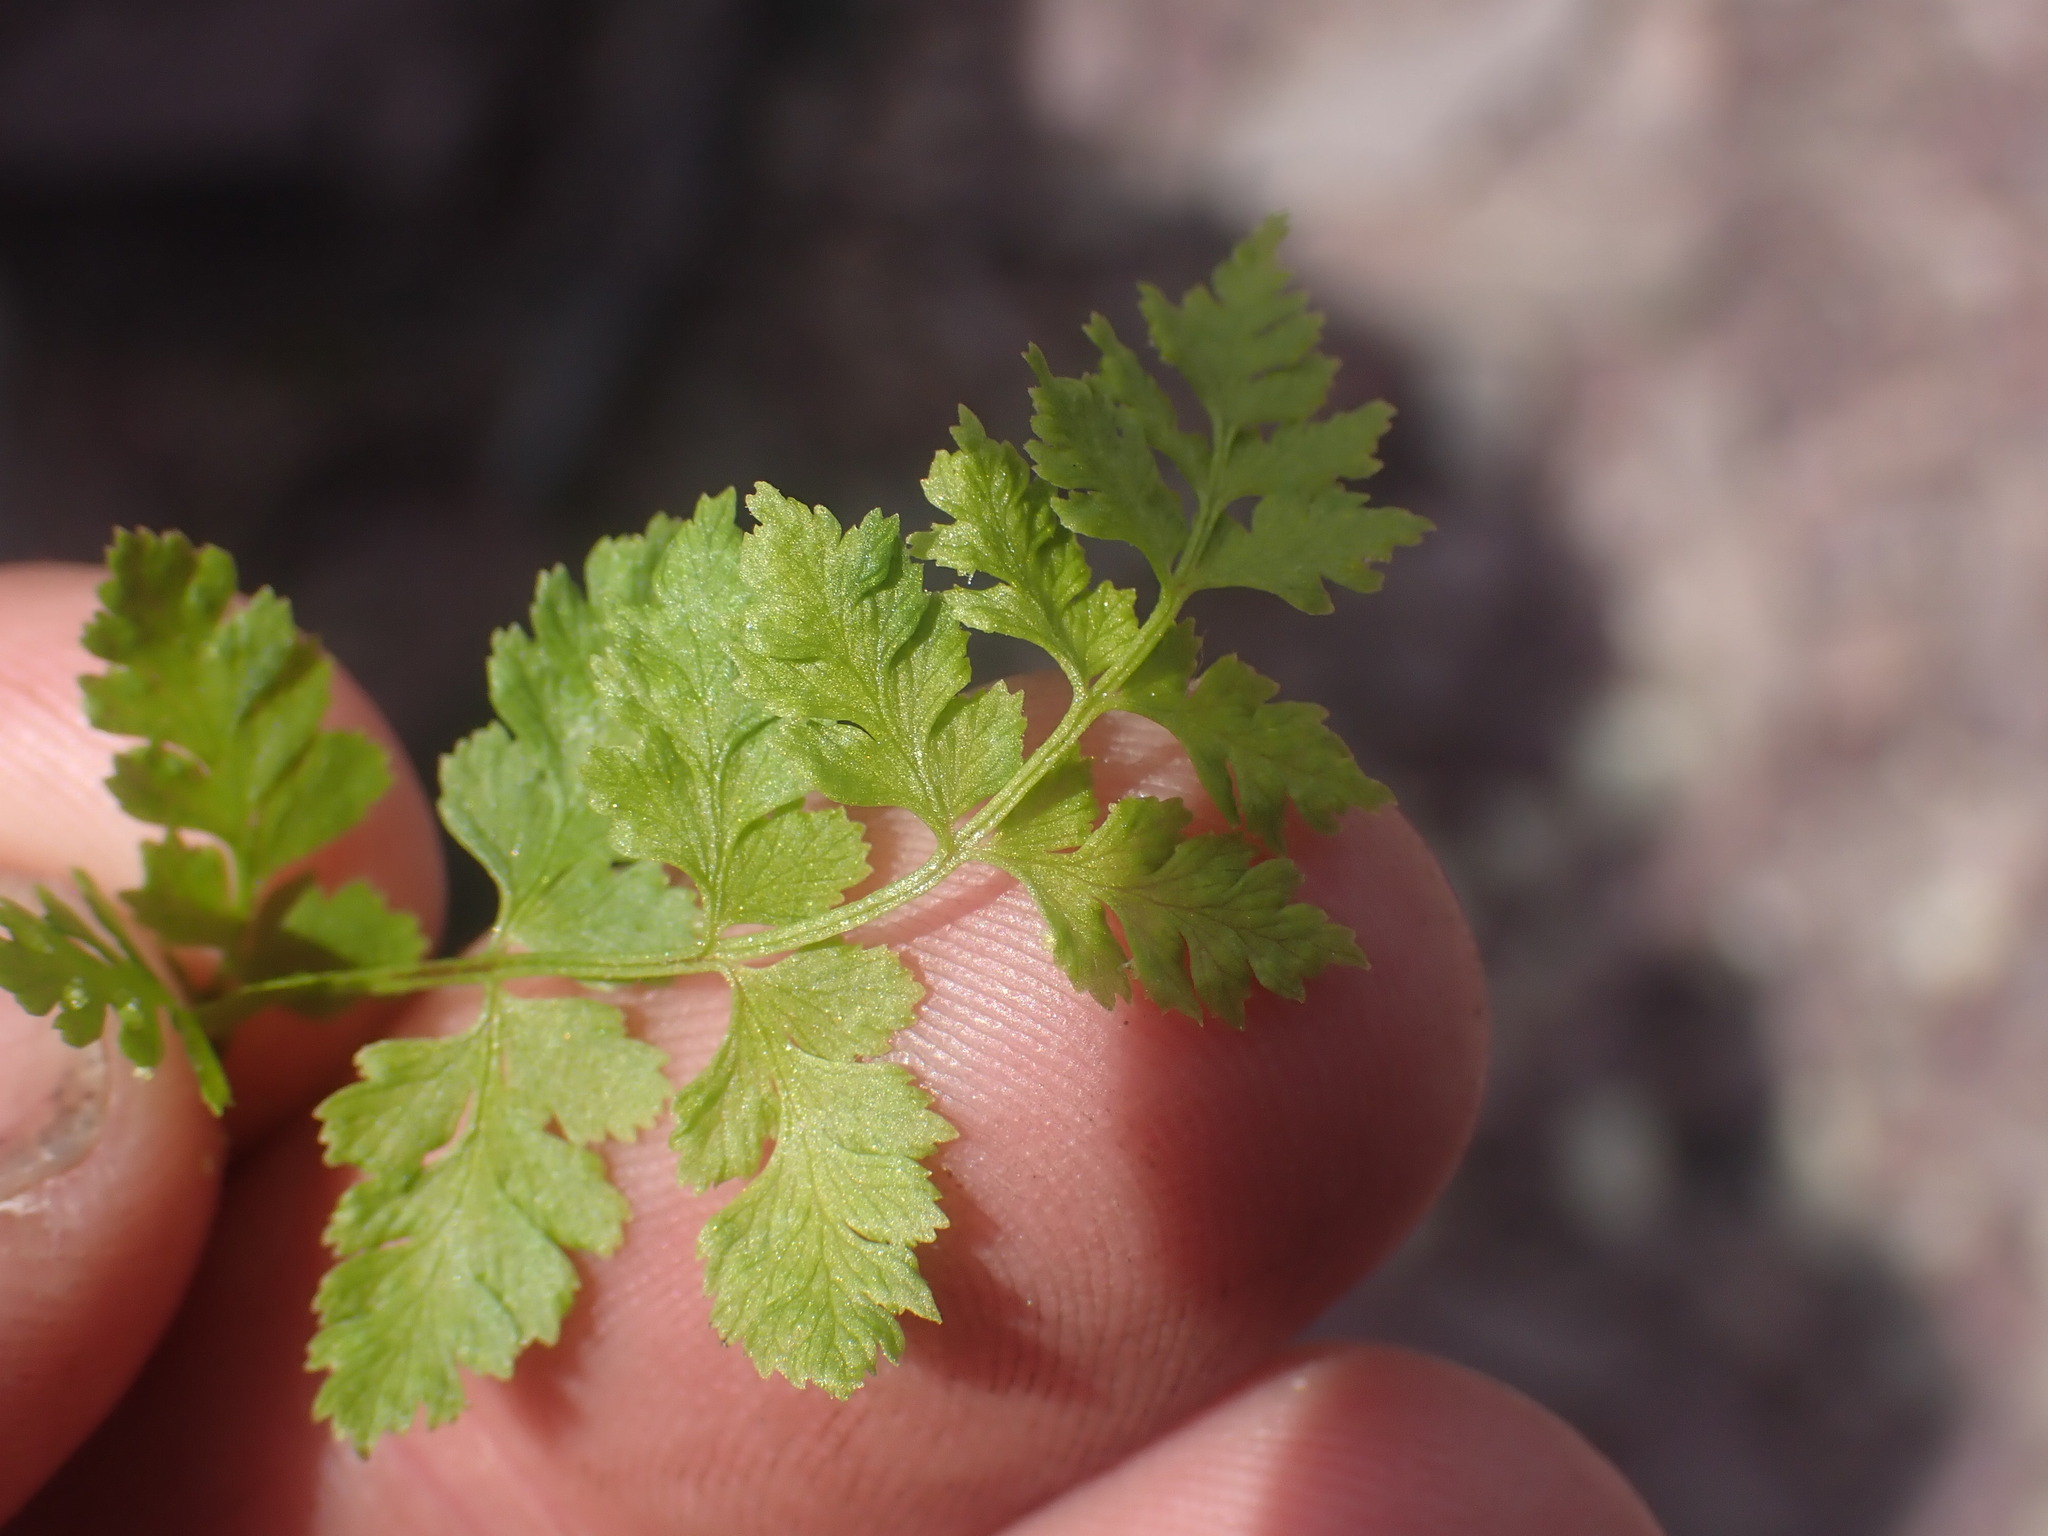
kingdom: Plantae
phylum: Tracheophyta
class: Polypodiopsida
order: Polypodiales
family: Cystopteridaceae
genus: Cystopteris
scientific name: Cystopteris fragilis
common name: Brittle bladder fern
